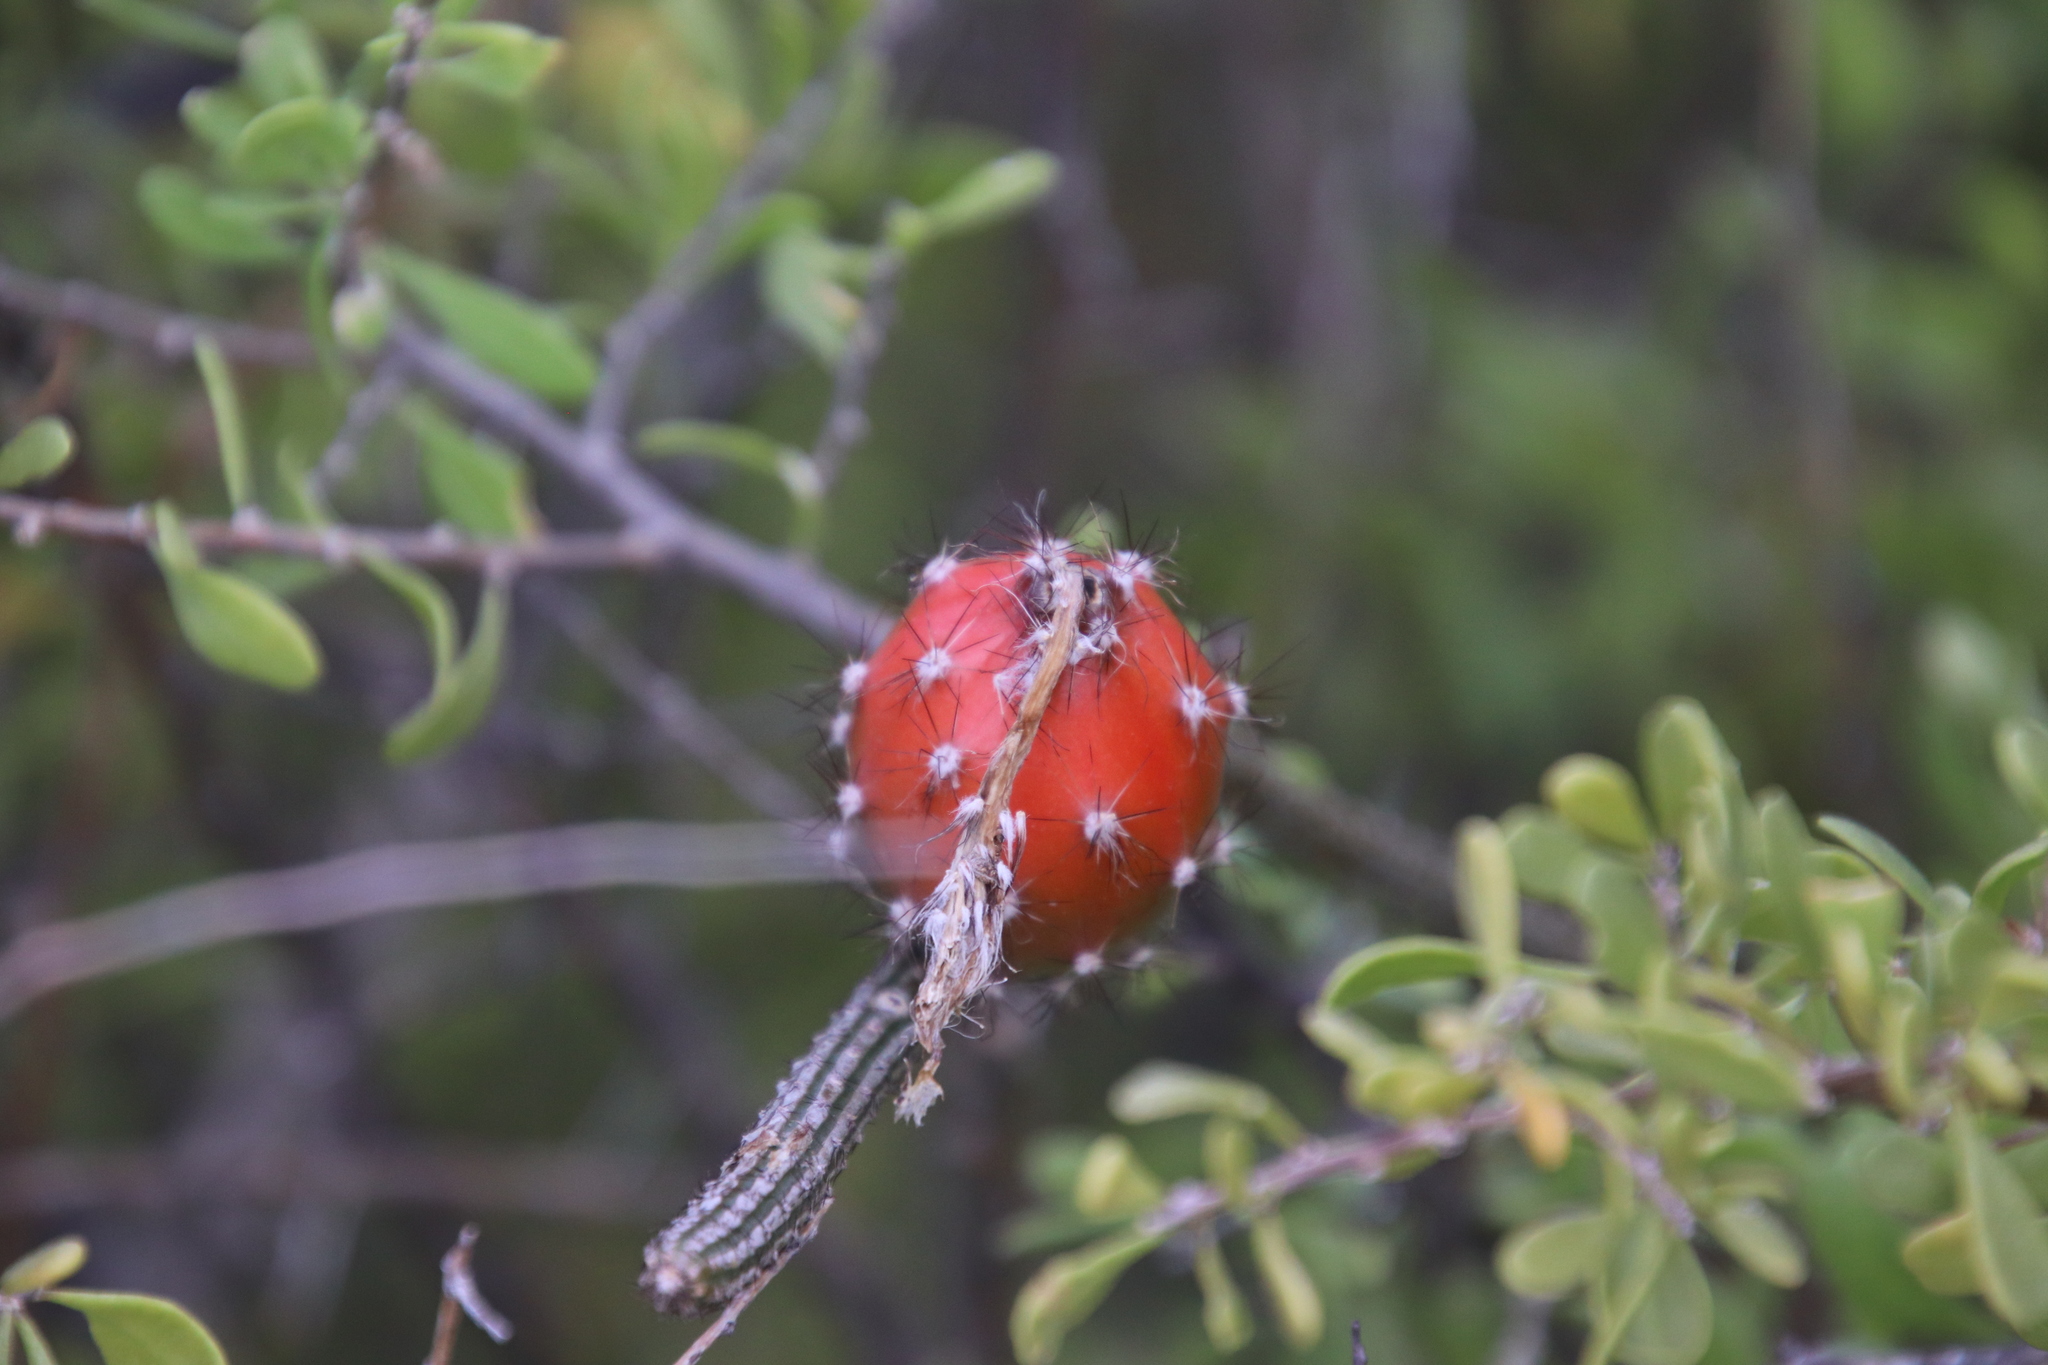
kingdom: Plantae
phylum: Tracheophyta
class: Magnoliopsida
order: Caryophyllales
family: Cactaceae
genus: Peniocereus
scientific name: Peniocereus striatus
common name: Gearstem cactus
